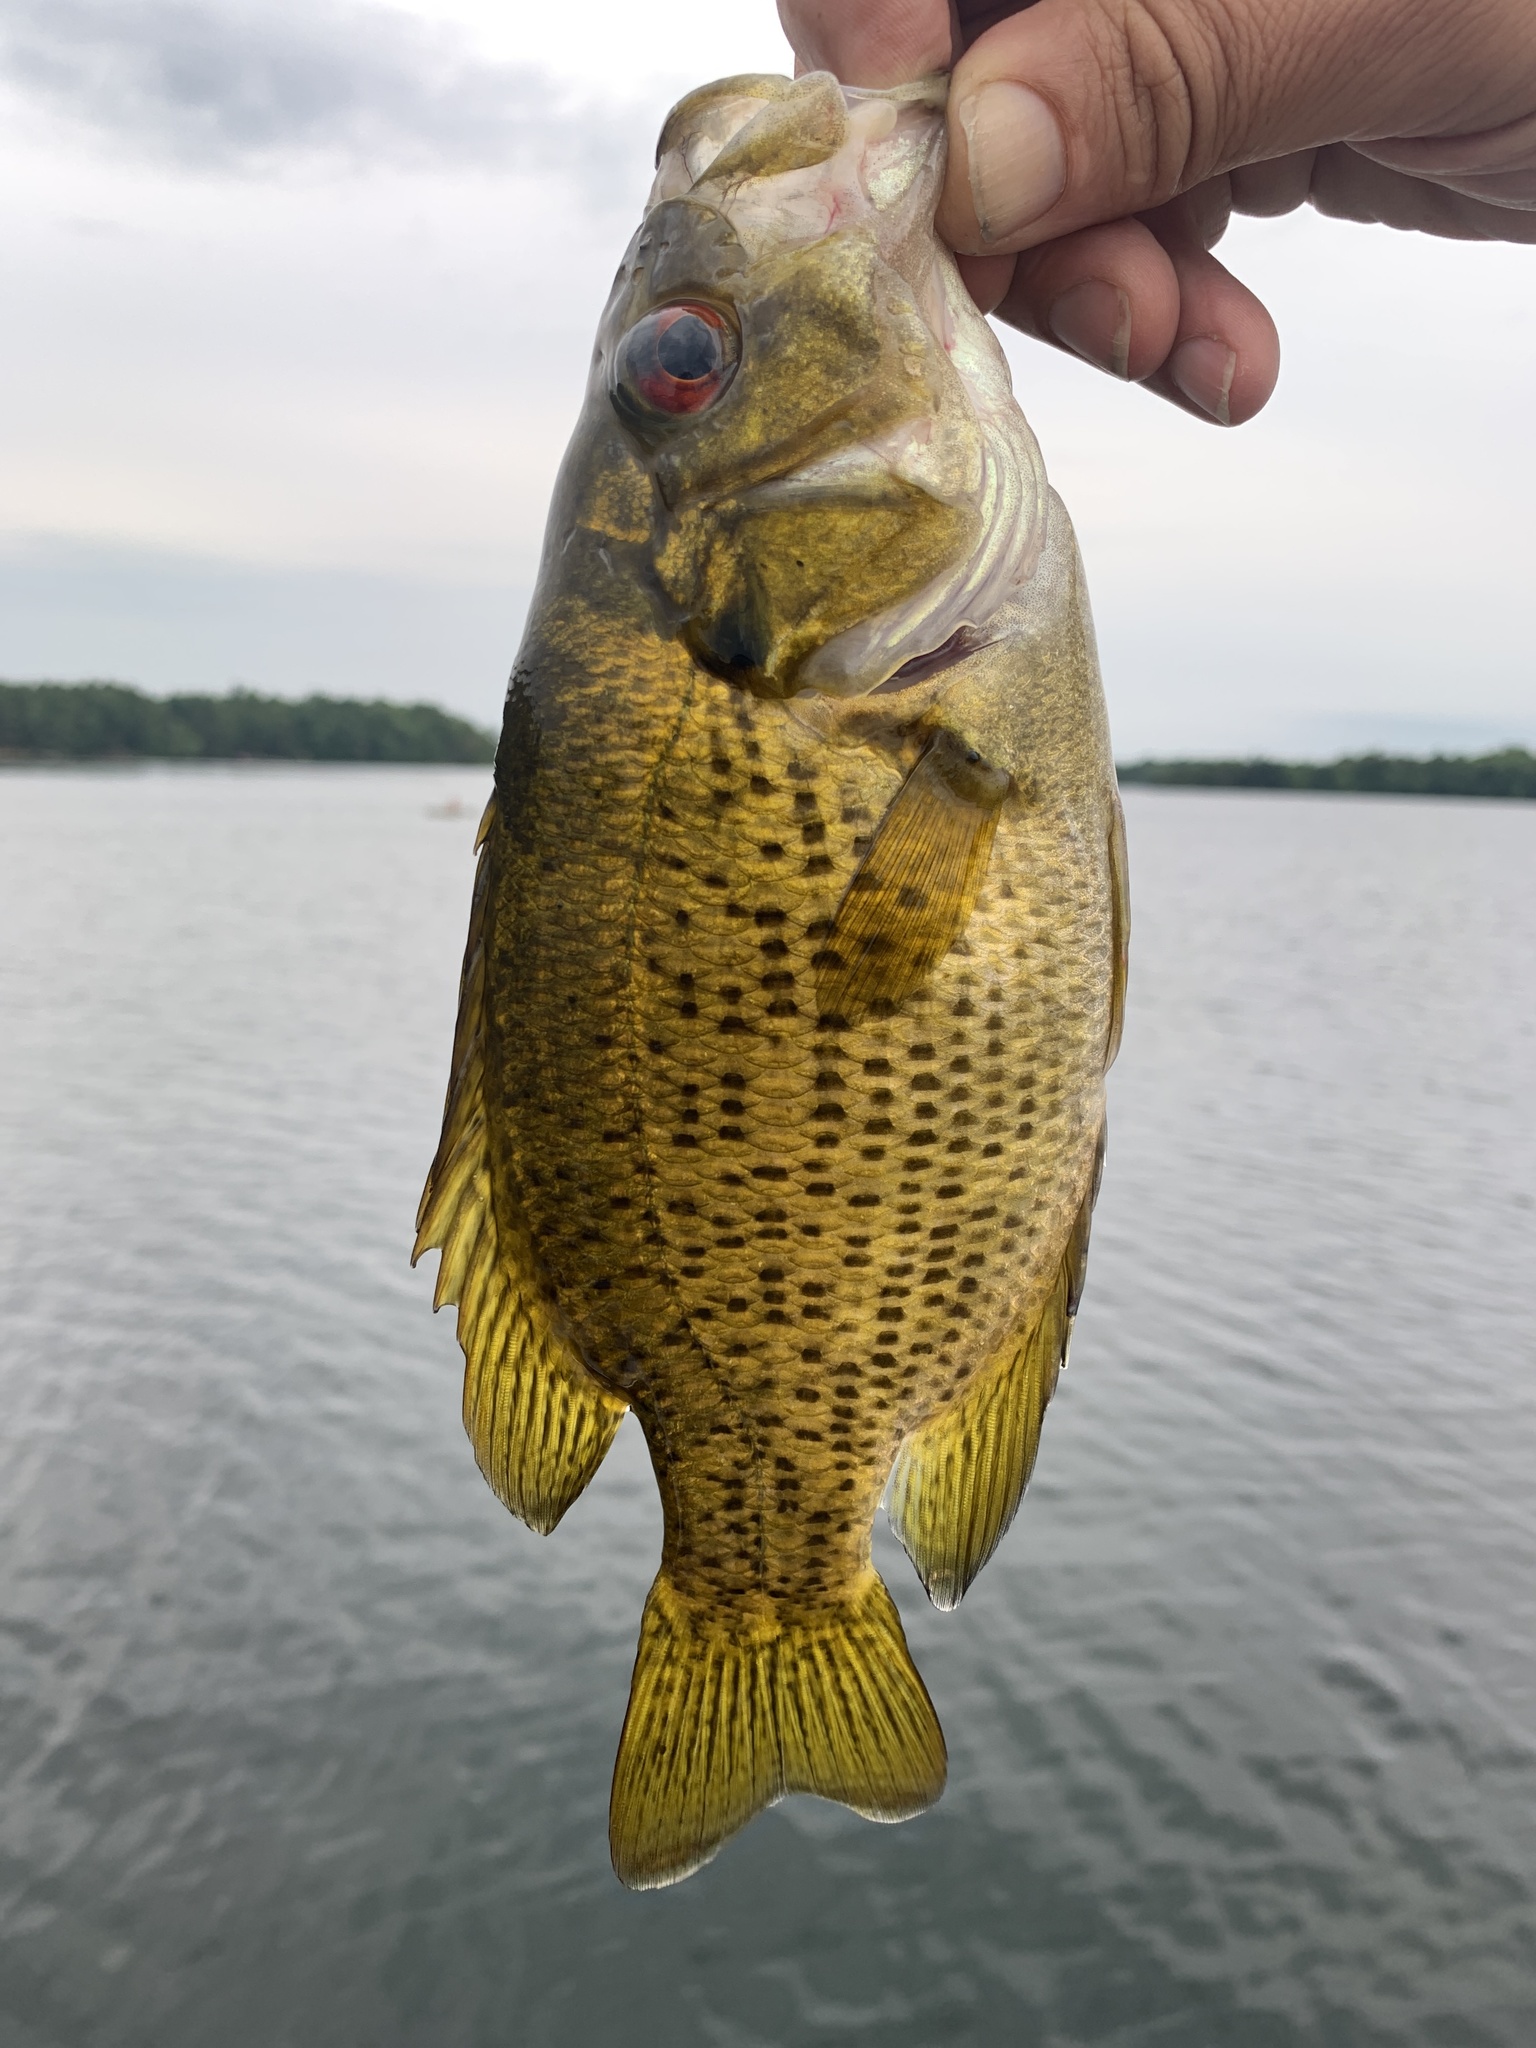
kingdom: Animalia
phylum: Chordata
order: Perciformes
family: Centrarchidae
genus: Ambloplites
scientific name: Ambloplites rupestris
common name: Rock bass
